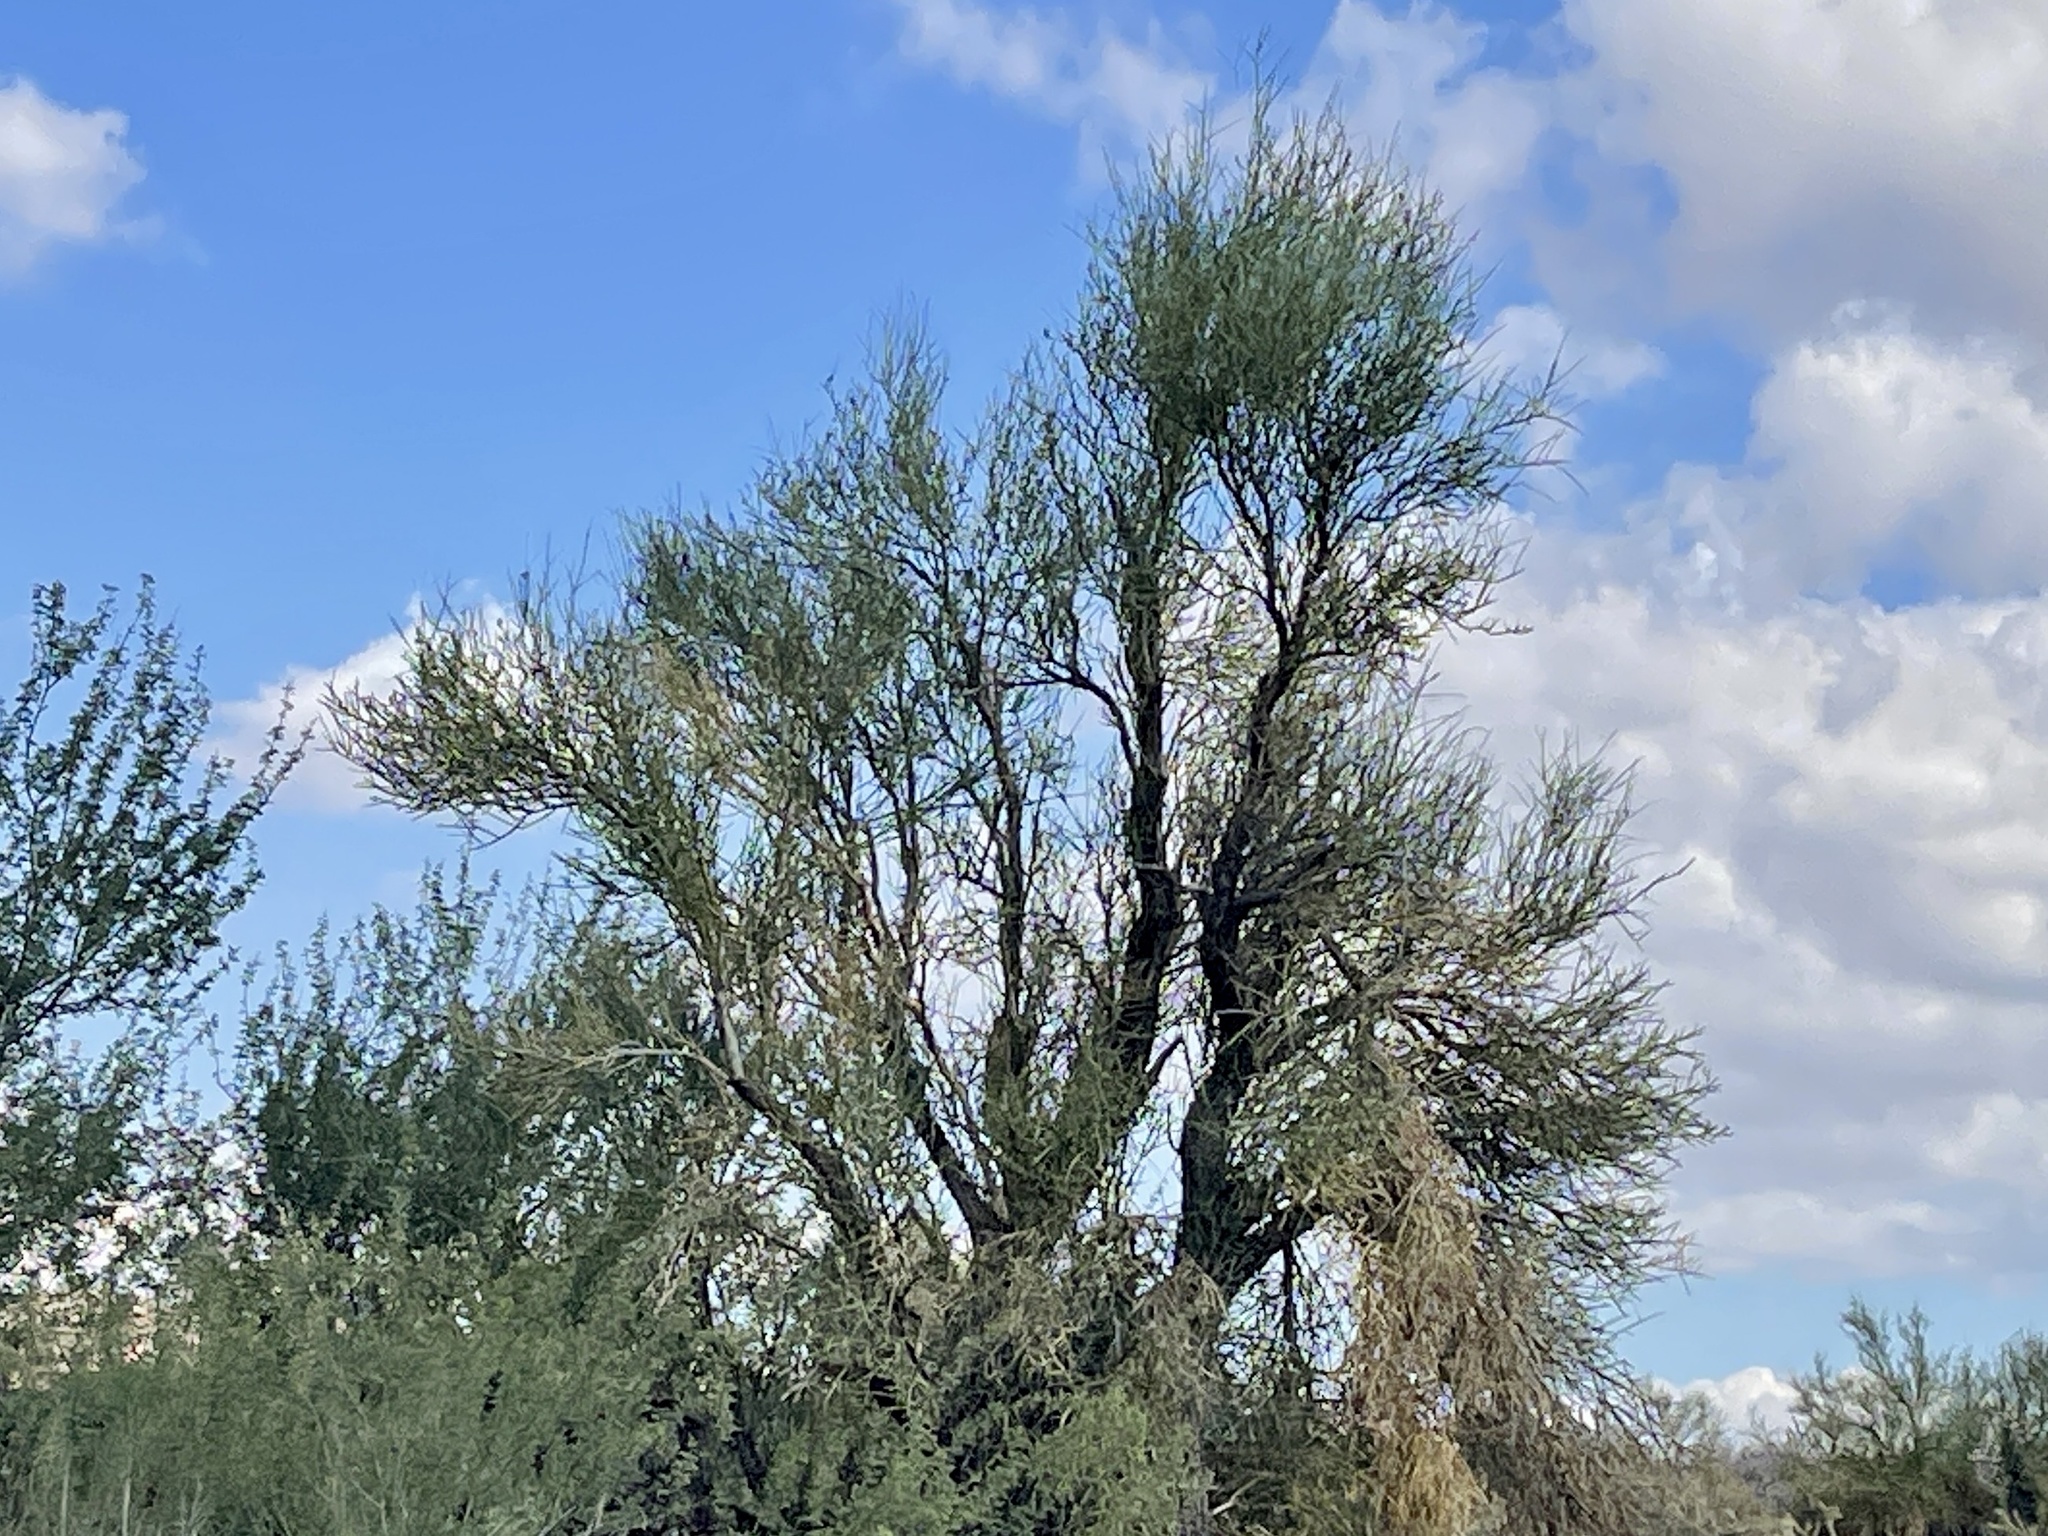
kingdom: Plantae
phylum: Tracheophyta
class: Magnoliopsida
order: Celastrales
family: Celastraceae
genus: Canotia
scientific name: Canotia holacantha
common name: Crucifixion thorns
